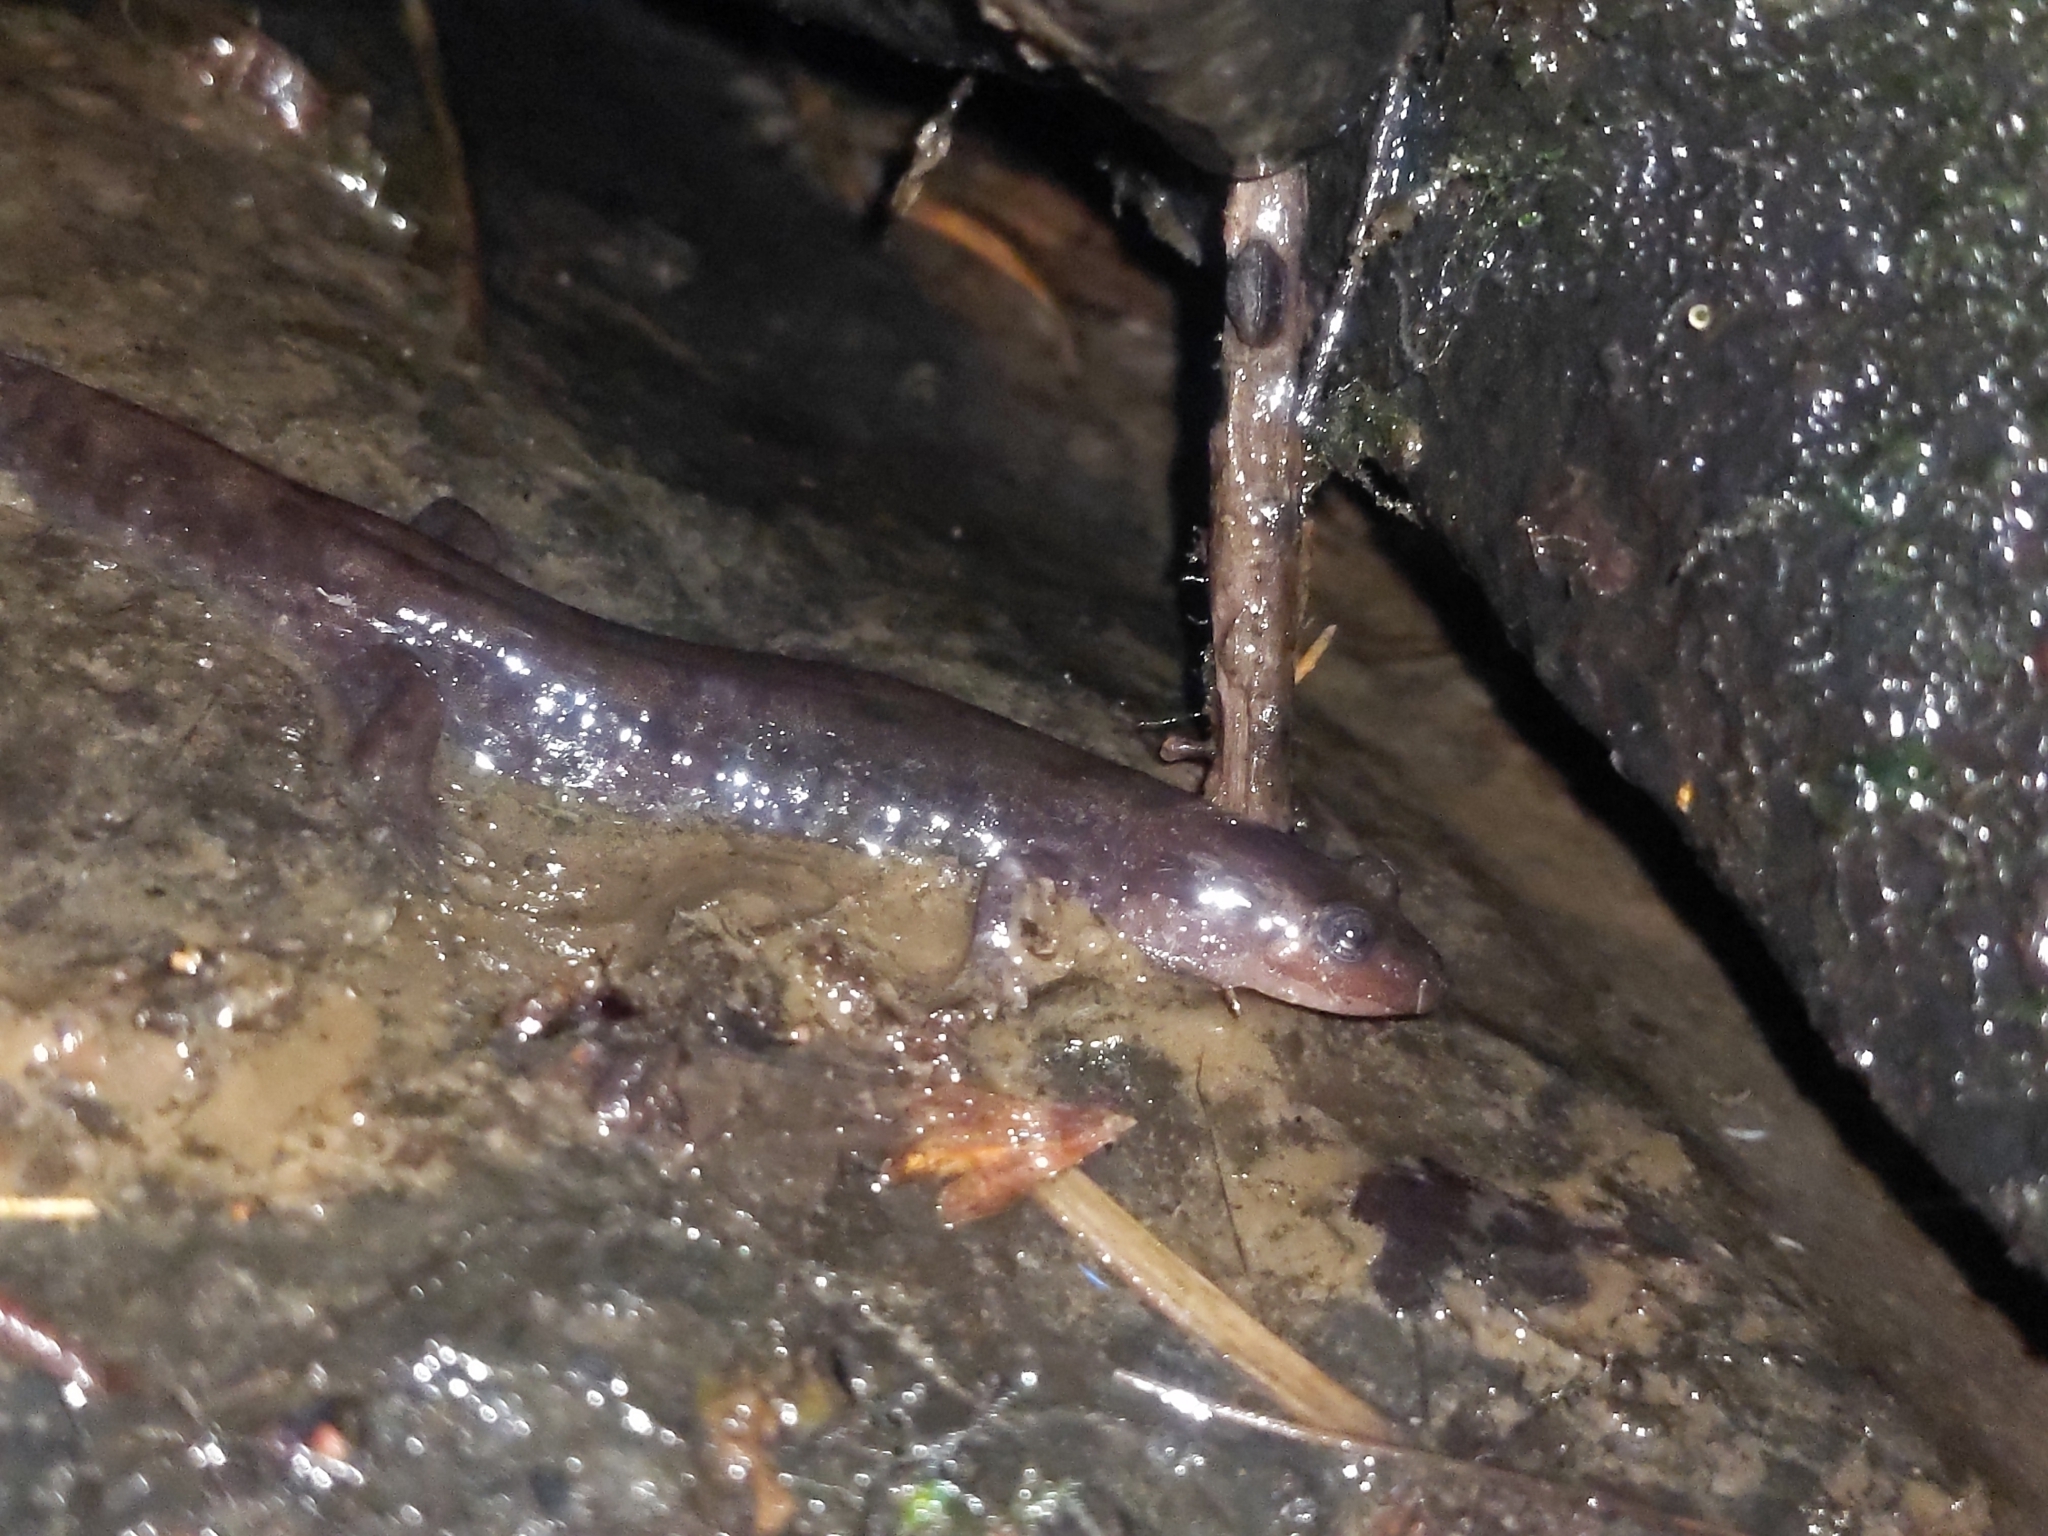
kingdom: Animalia
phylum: Chordata
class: Amphibia
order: Caudata
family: Plethodontidae
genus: Desmognathus
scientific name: Desmognathus monticola
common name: Seal salamander
